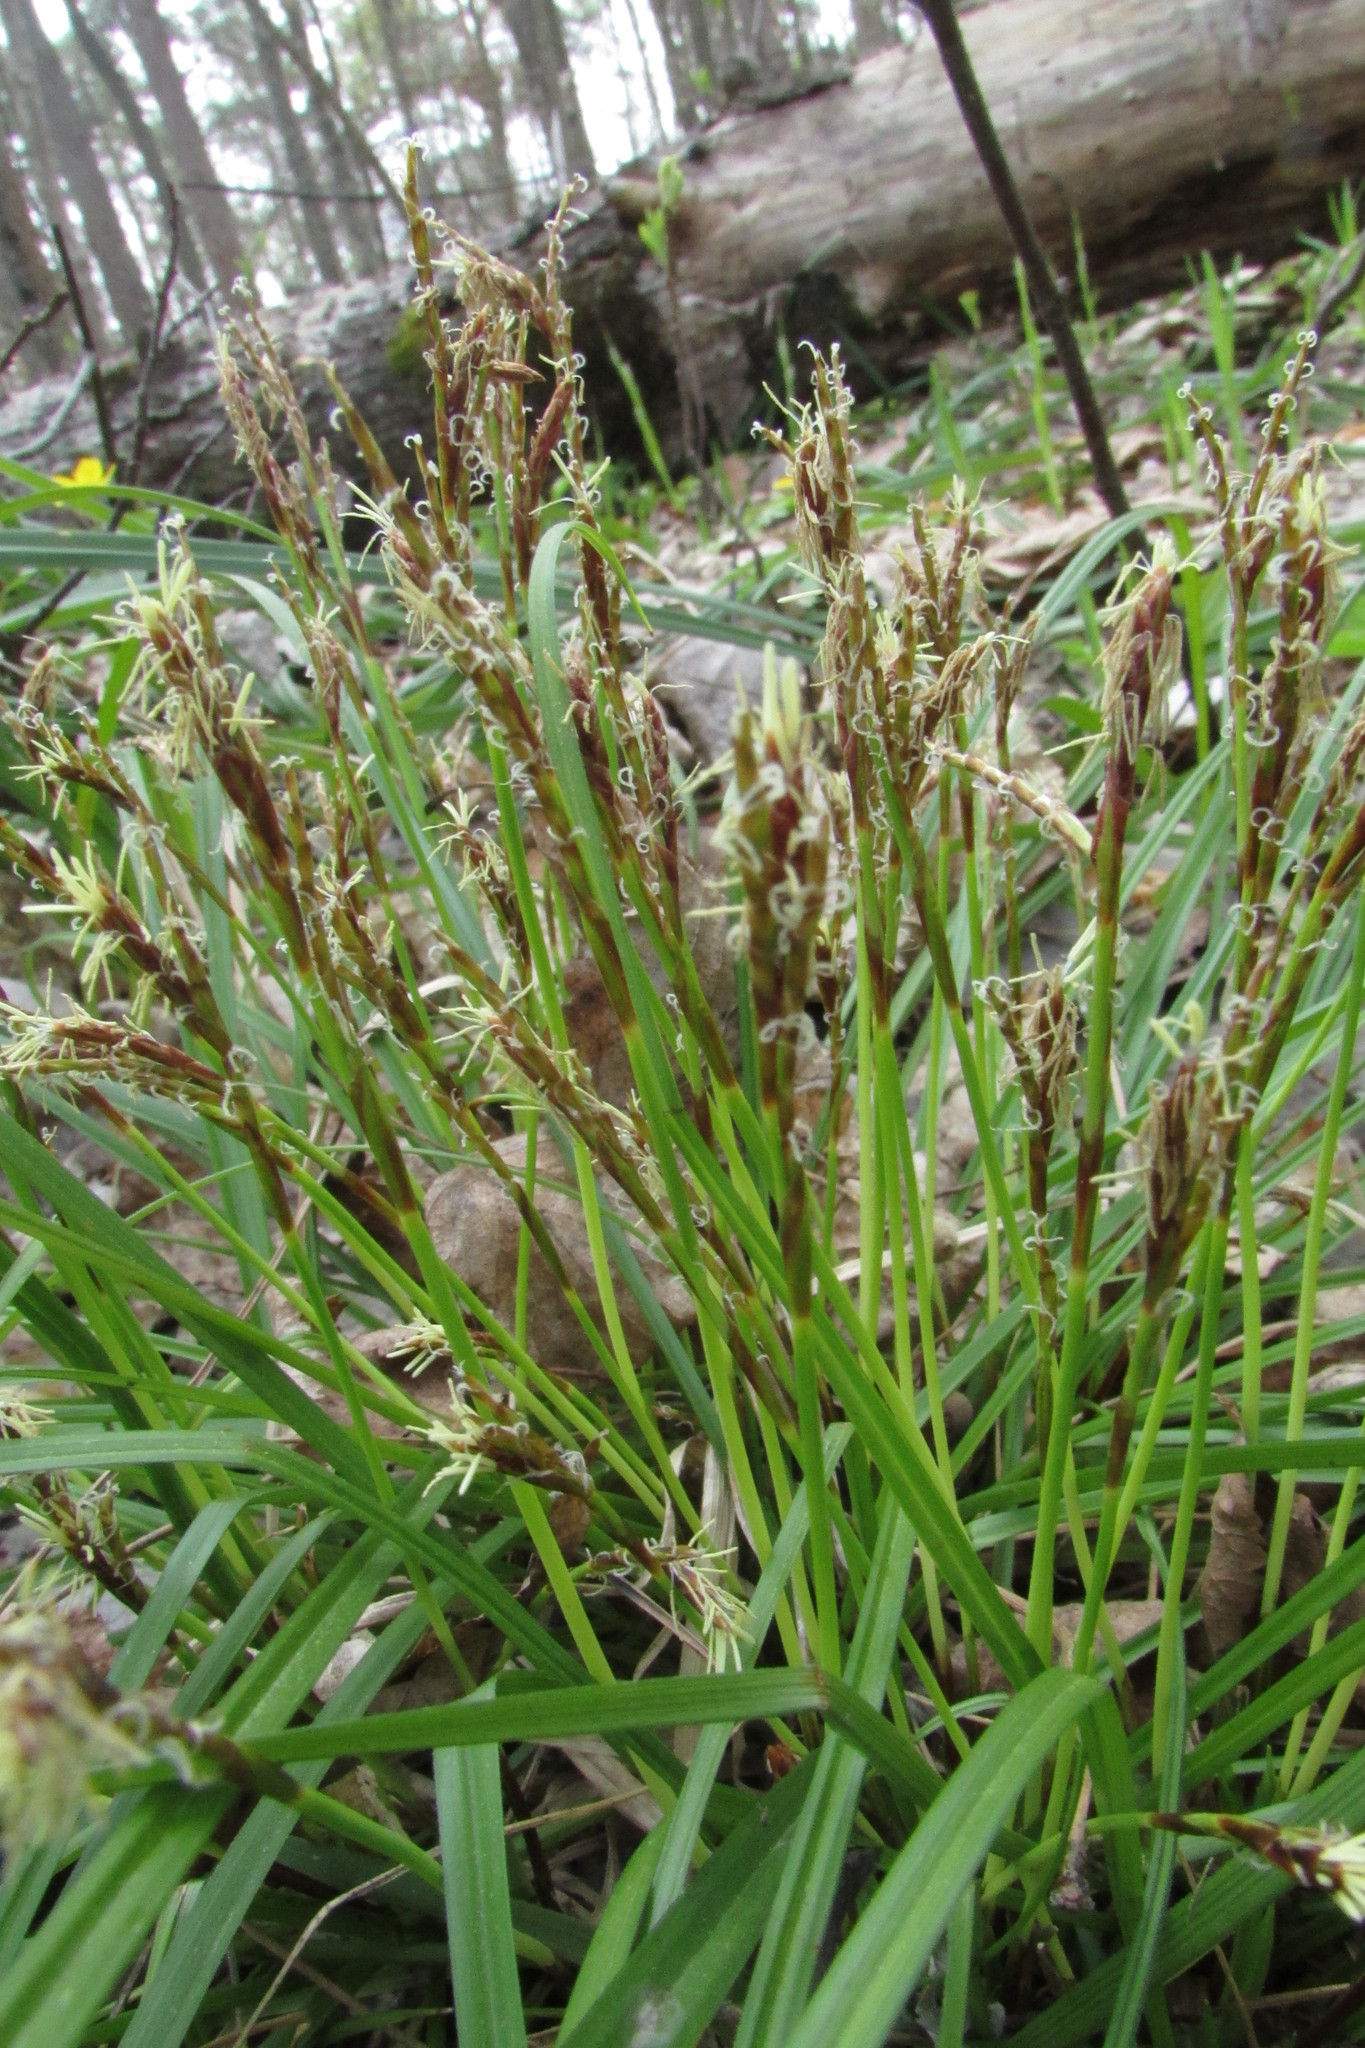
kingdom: Plantae
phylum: Tracheophyta
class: Liliopsida
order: Poales
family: Cyperaceae
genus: Carex
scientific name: Carex digitata
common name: Fingered sedge
